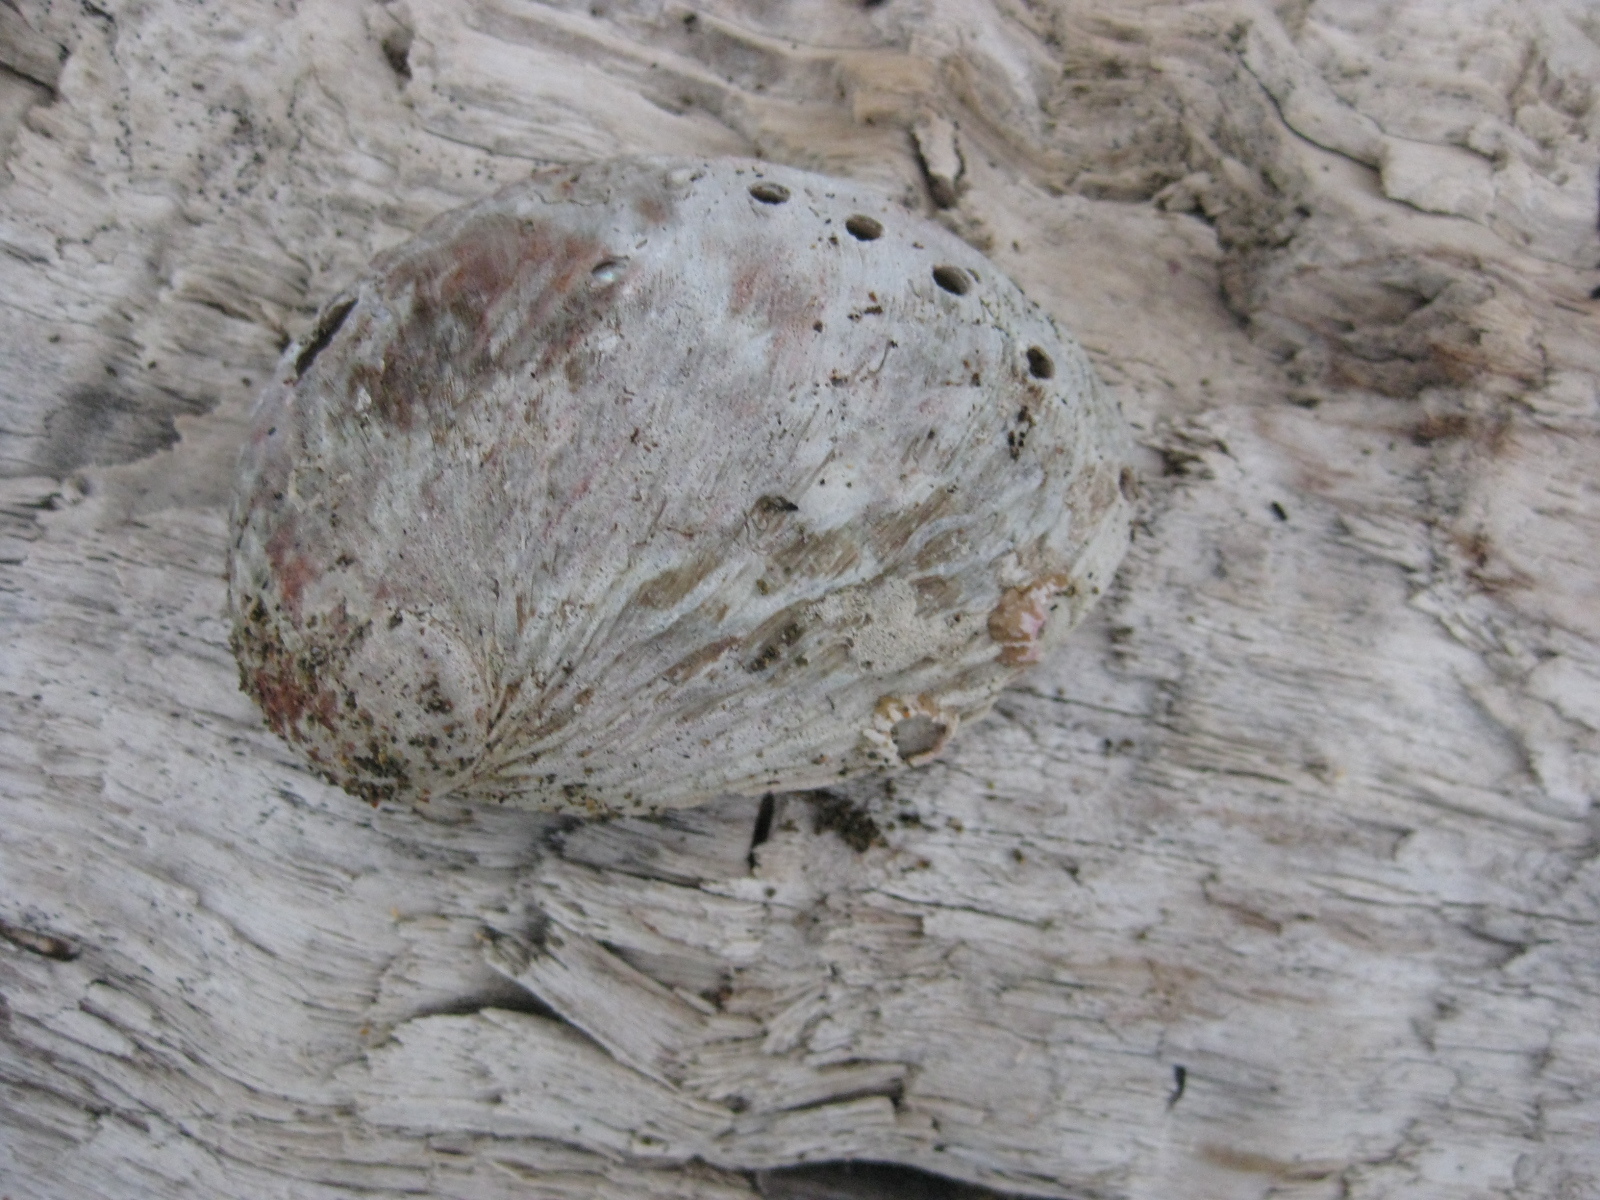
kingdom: Animalia
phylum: Mollusca
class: Gastropoda
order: Lepetellida
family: Haliotidae
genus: Haliotis
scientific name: Haliotis australis
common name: Silver abalone
